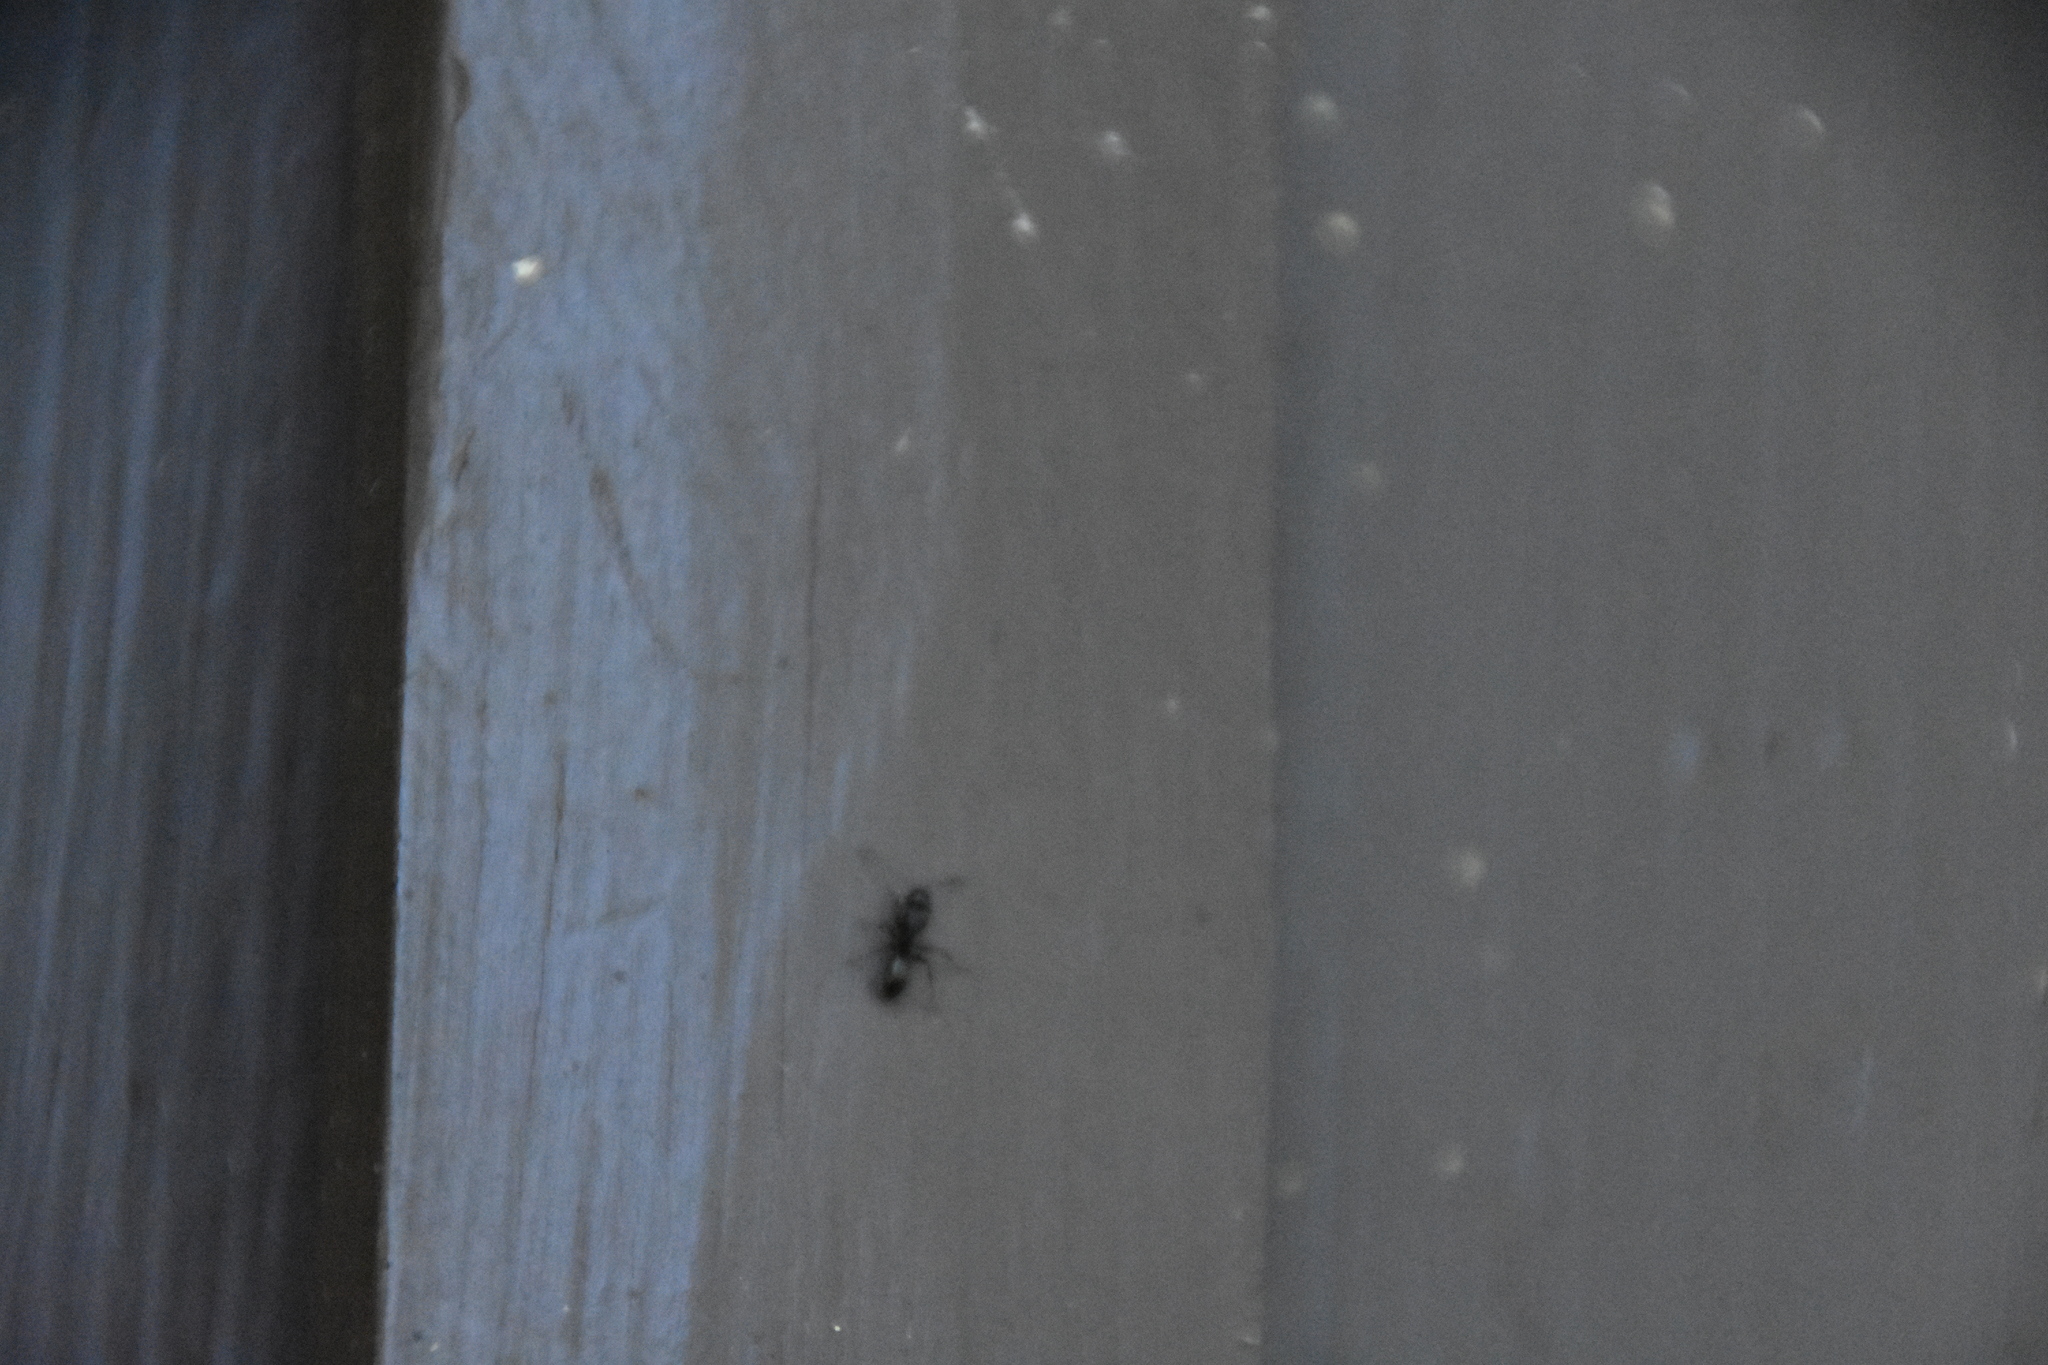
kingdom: Animalia
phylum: Arthropoda
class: Insecta
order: Hymenoptera
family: Formicidae
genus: Camponotus
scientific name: Camponotus pennsylvanicus
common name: Black carpenter ant
